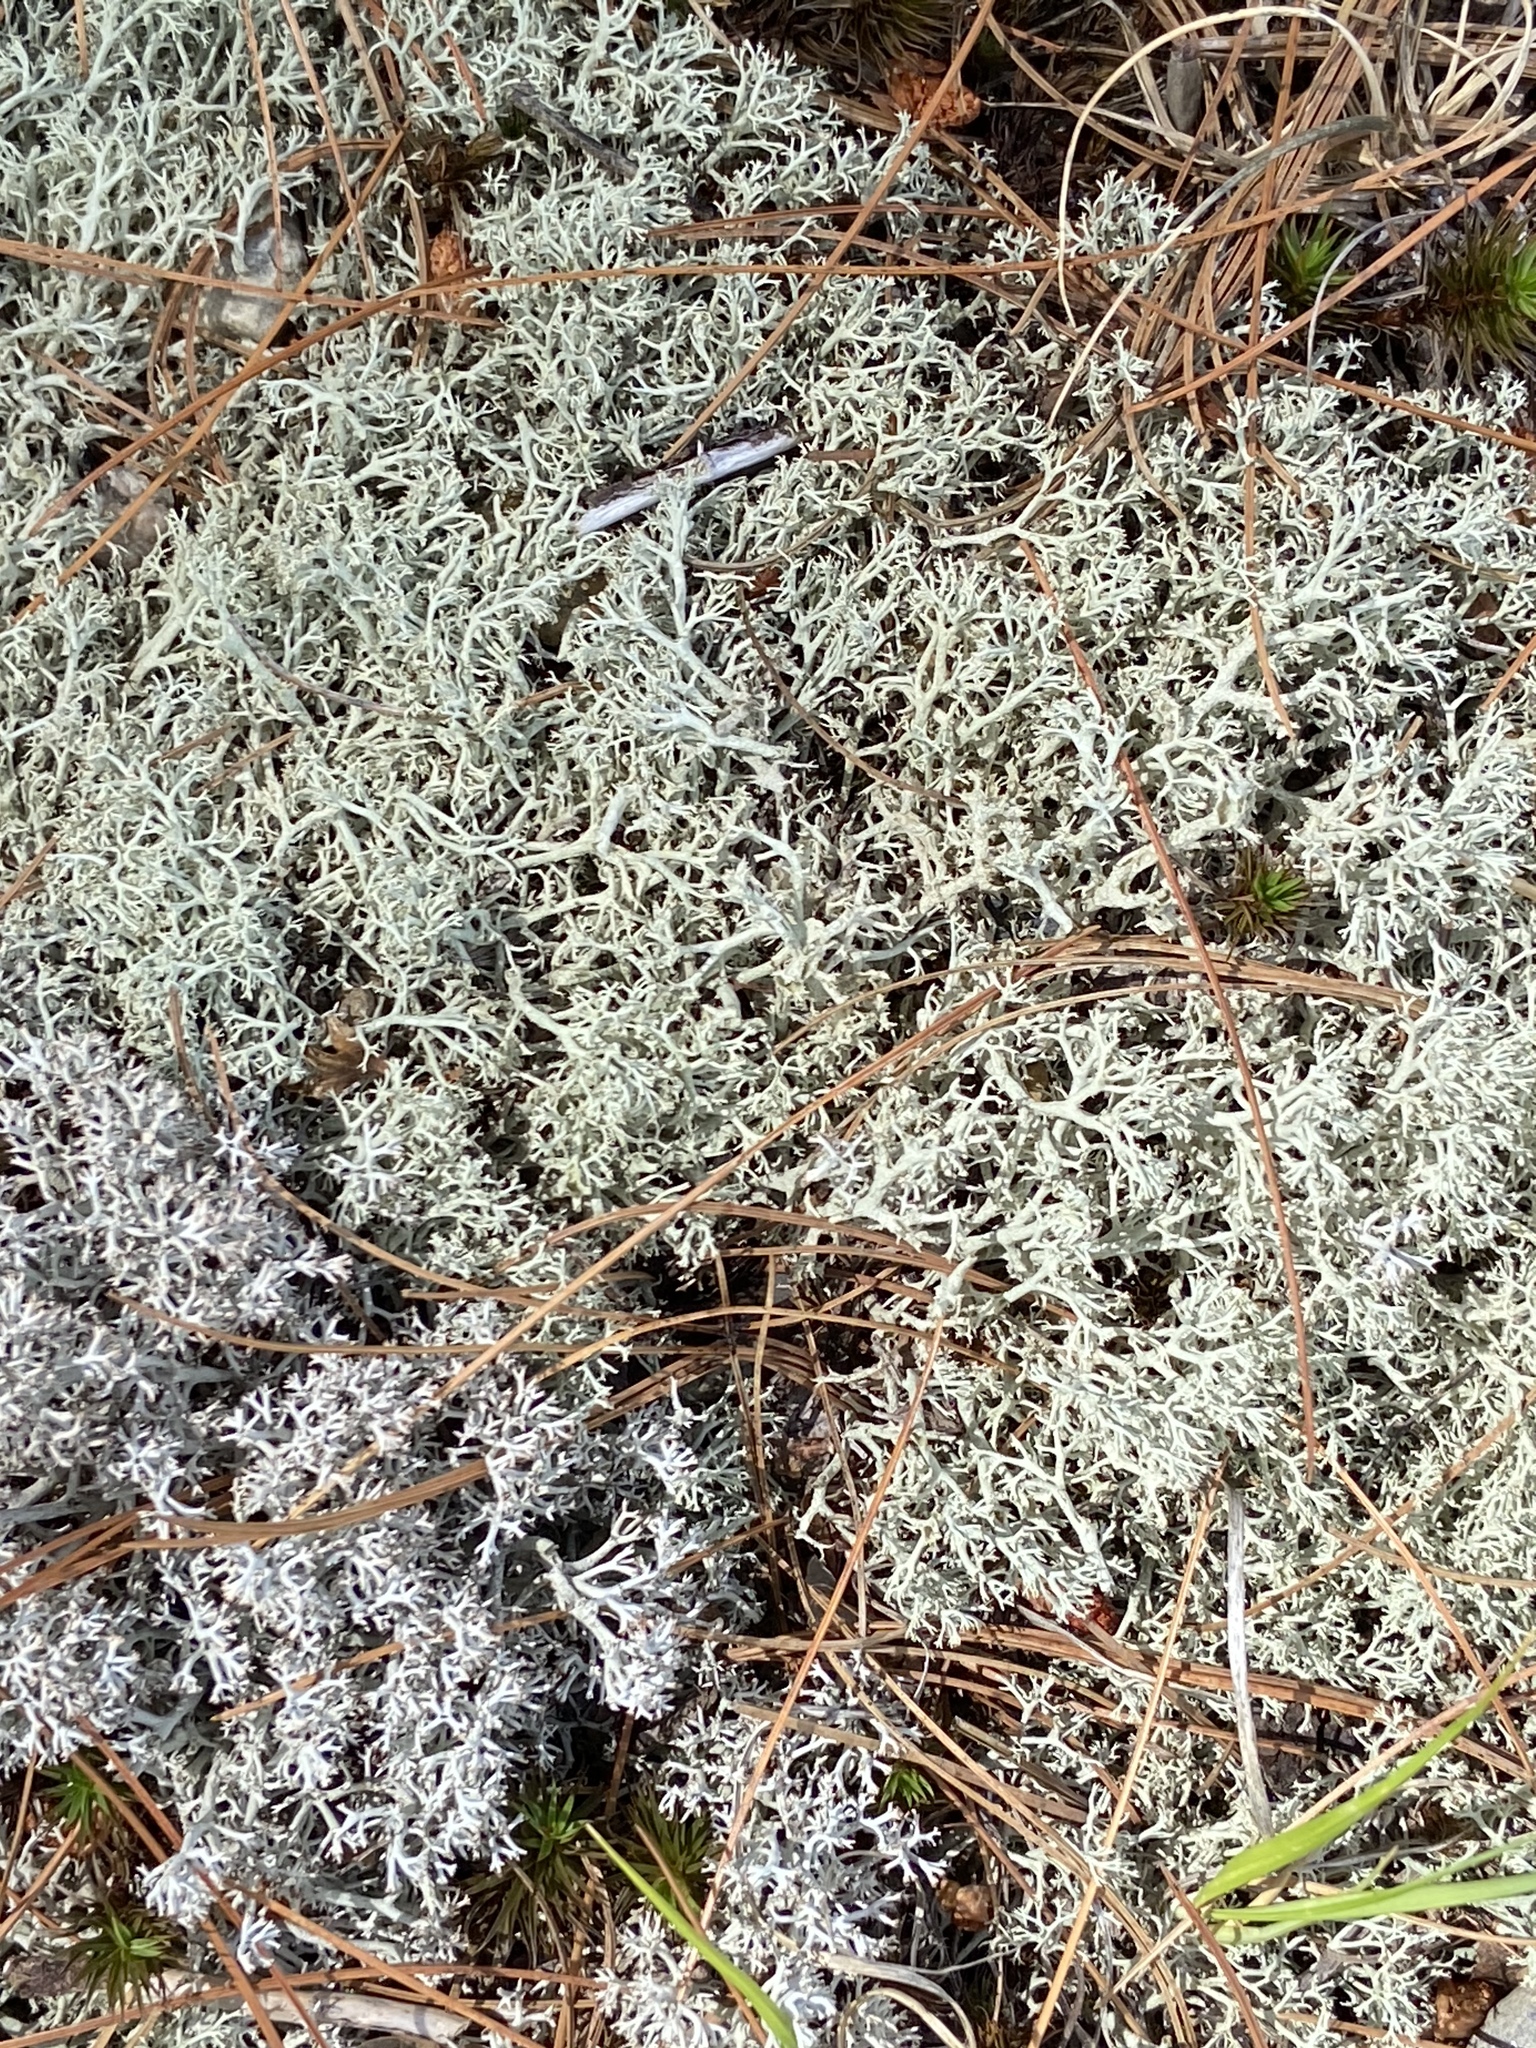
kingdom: Fungi
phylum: Ascomycota
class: Lecanoromycetes
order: Lecanorales
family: Cladoniaceae
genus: Cladonia
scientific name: Cladonia arbuscula
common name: Reindeer lichen
